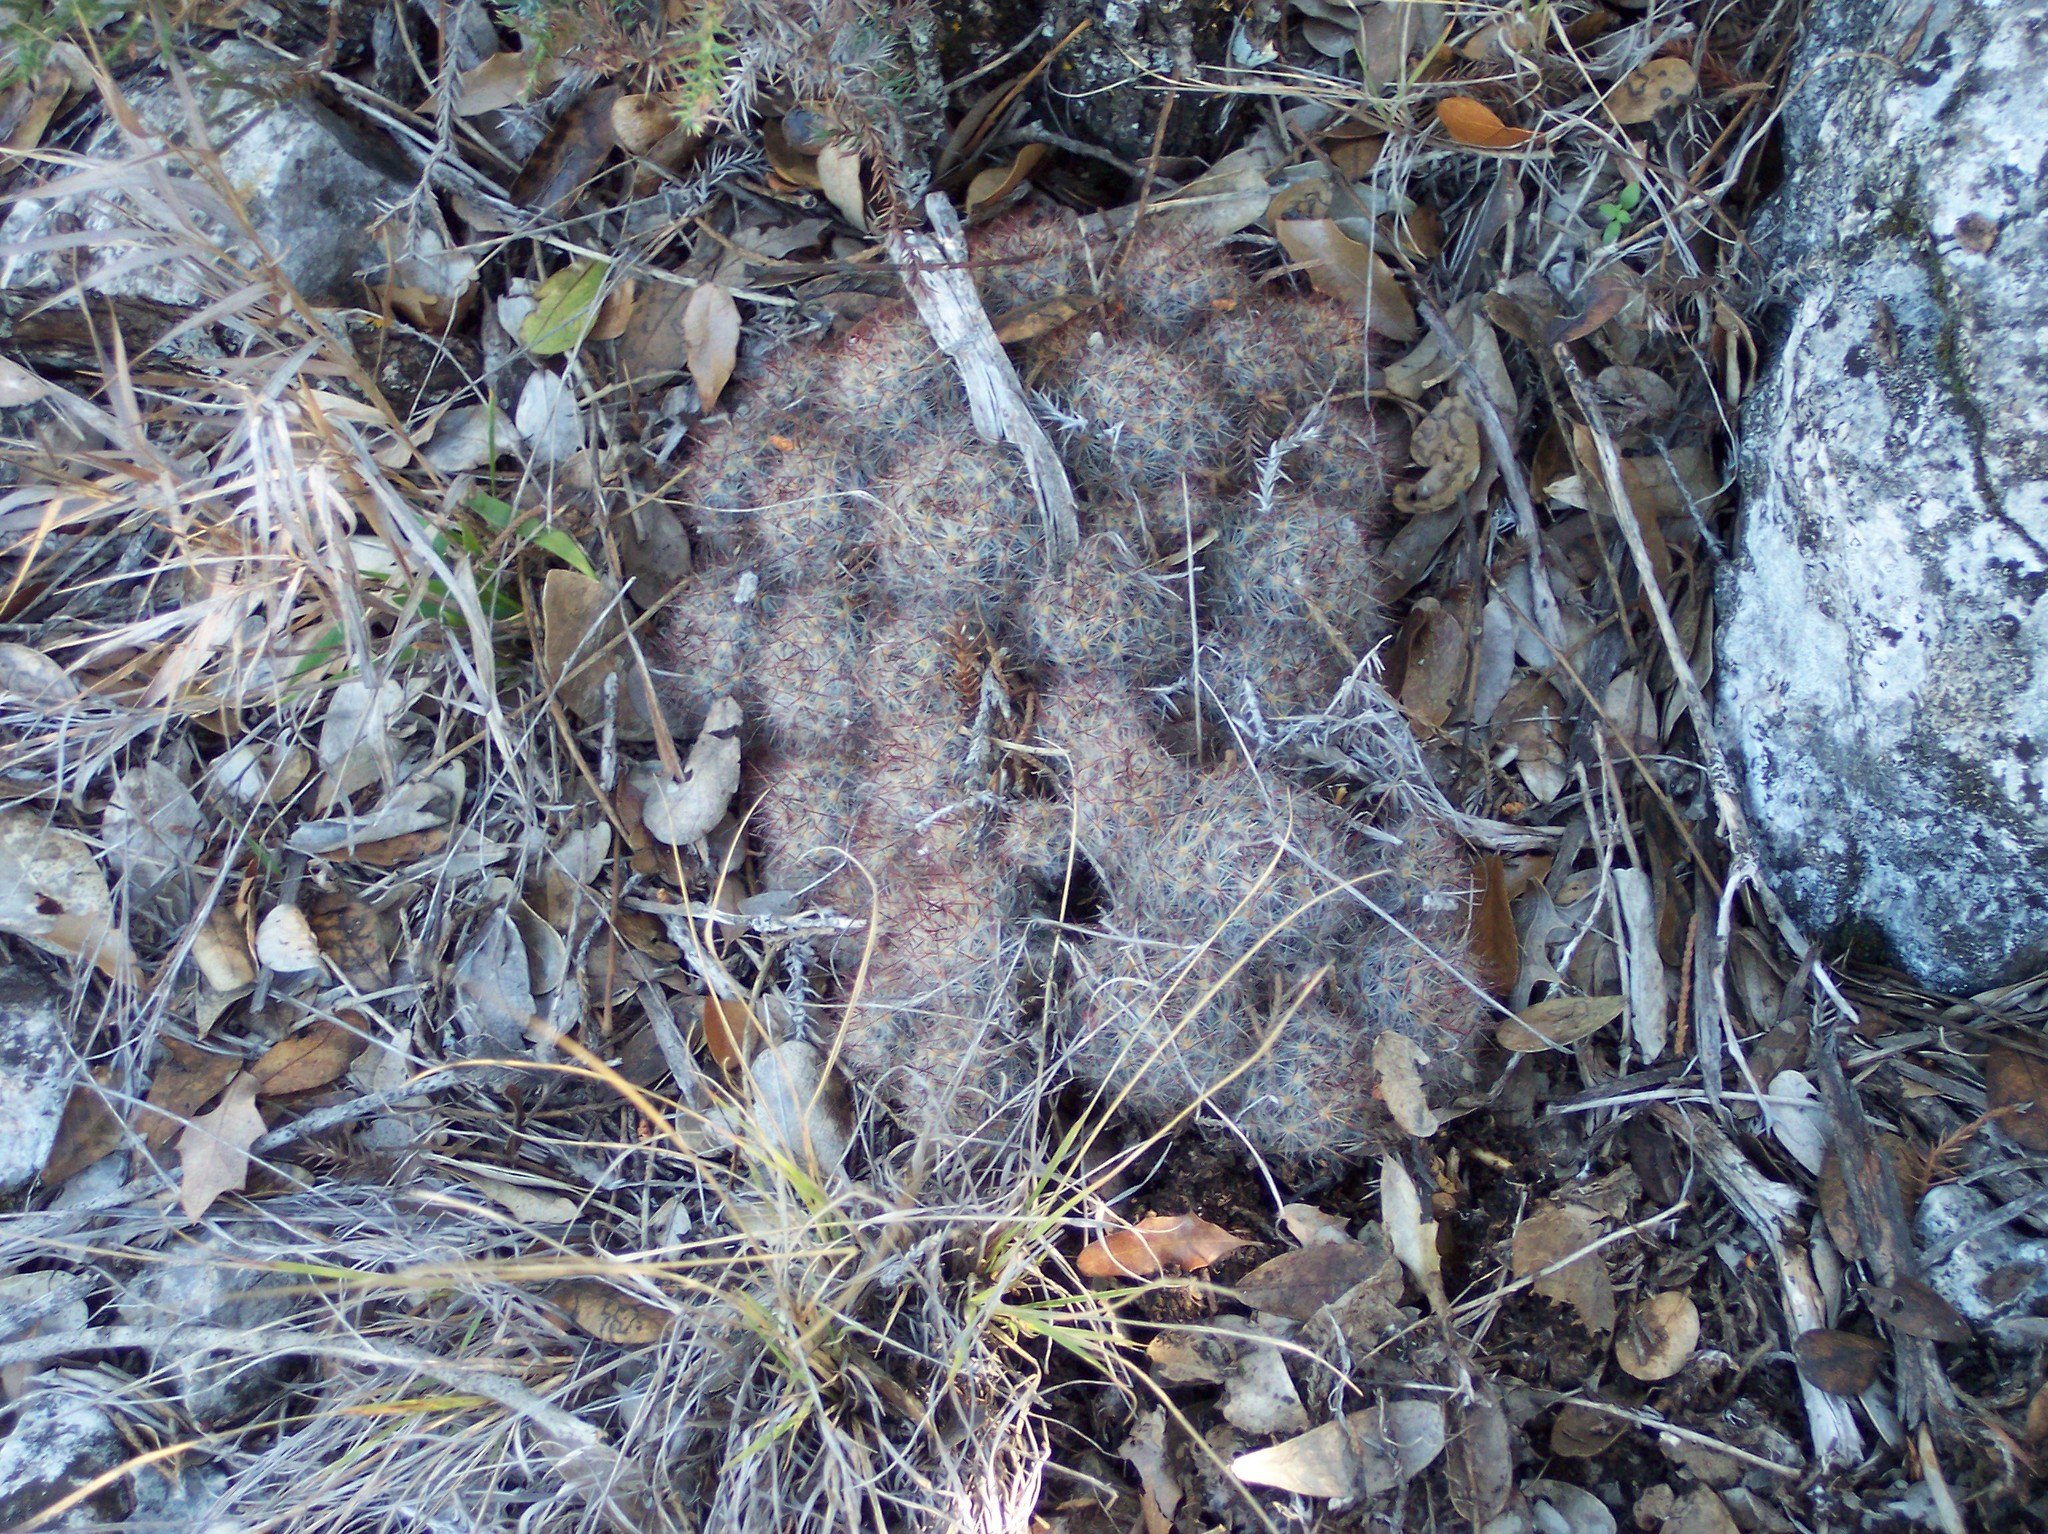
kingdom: Plantae
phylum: Tracheophyta
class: Magnoliopsida
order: Caryophyllales
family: Cactaceae
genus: Mammillaria
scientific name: Mammillaria prolifera
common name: Texas nipple cactus
